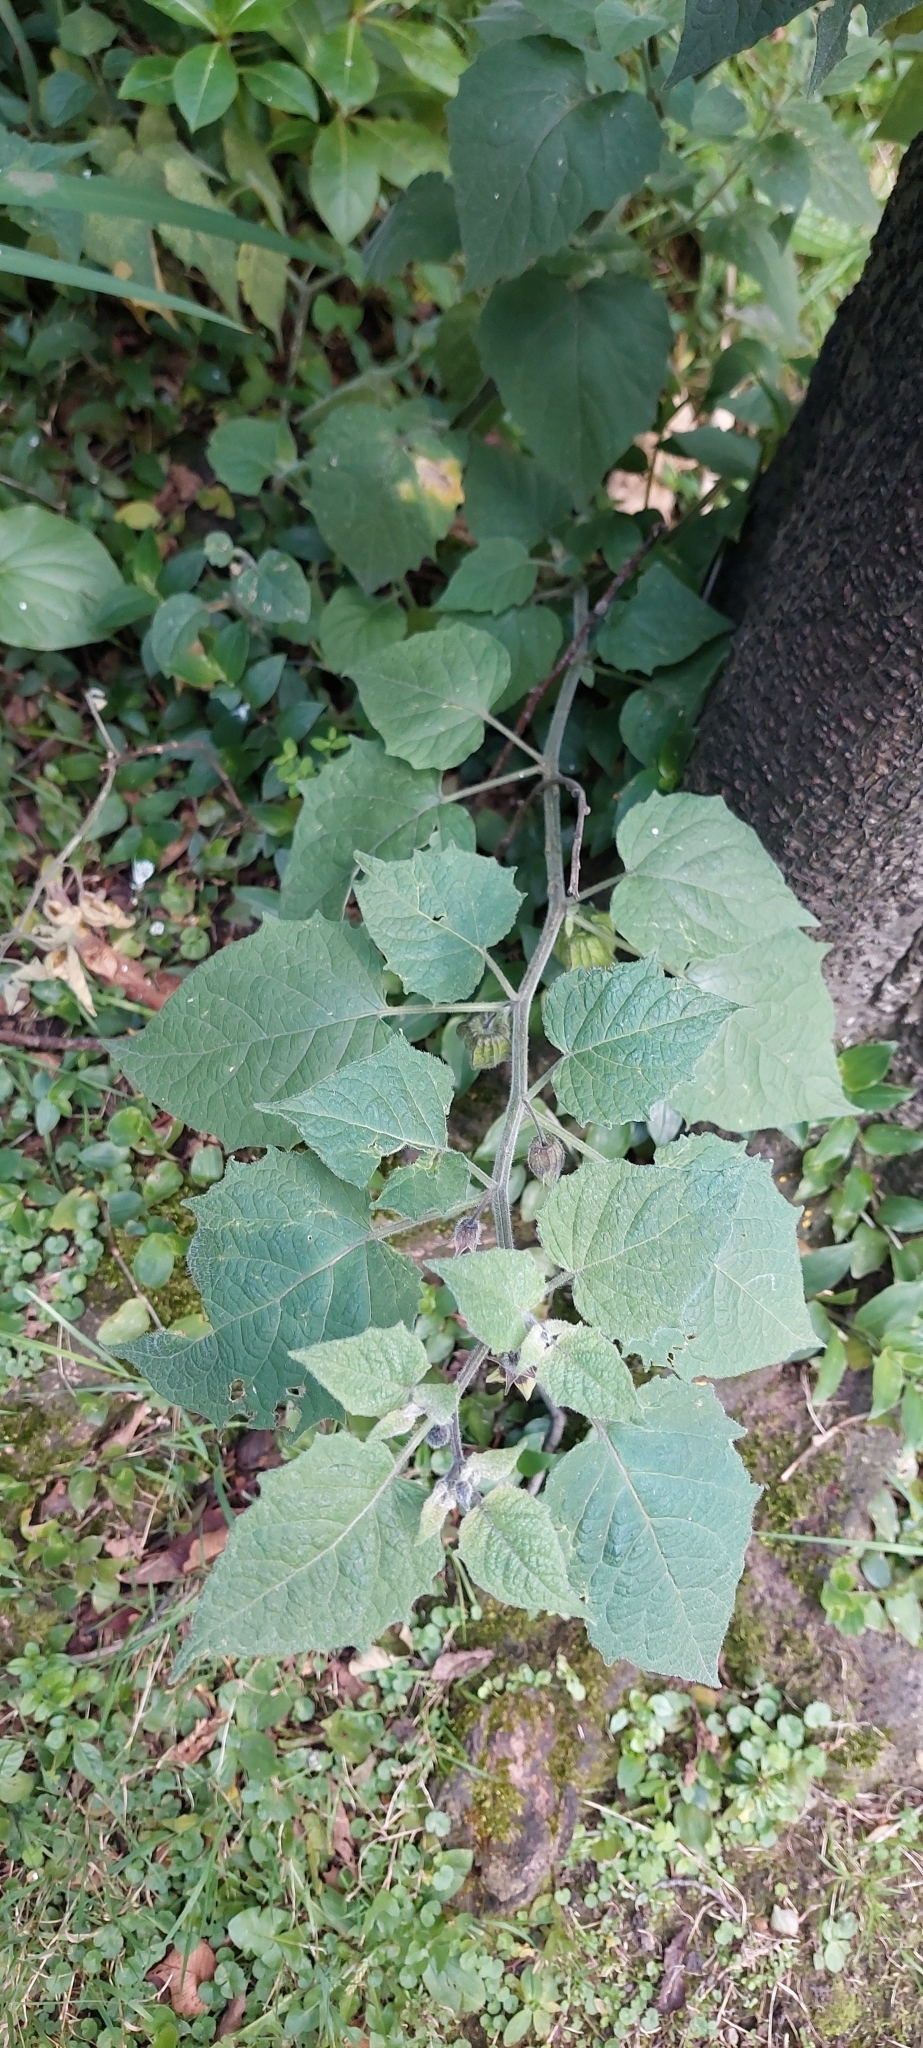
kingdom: Plantae
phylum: Tracheophyta
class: Magnoliopsida
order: Solanales
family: Solanaceae
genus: Physalis
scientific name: Physalis peruviana
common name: Cape-gooseberry
